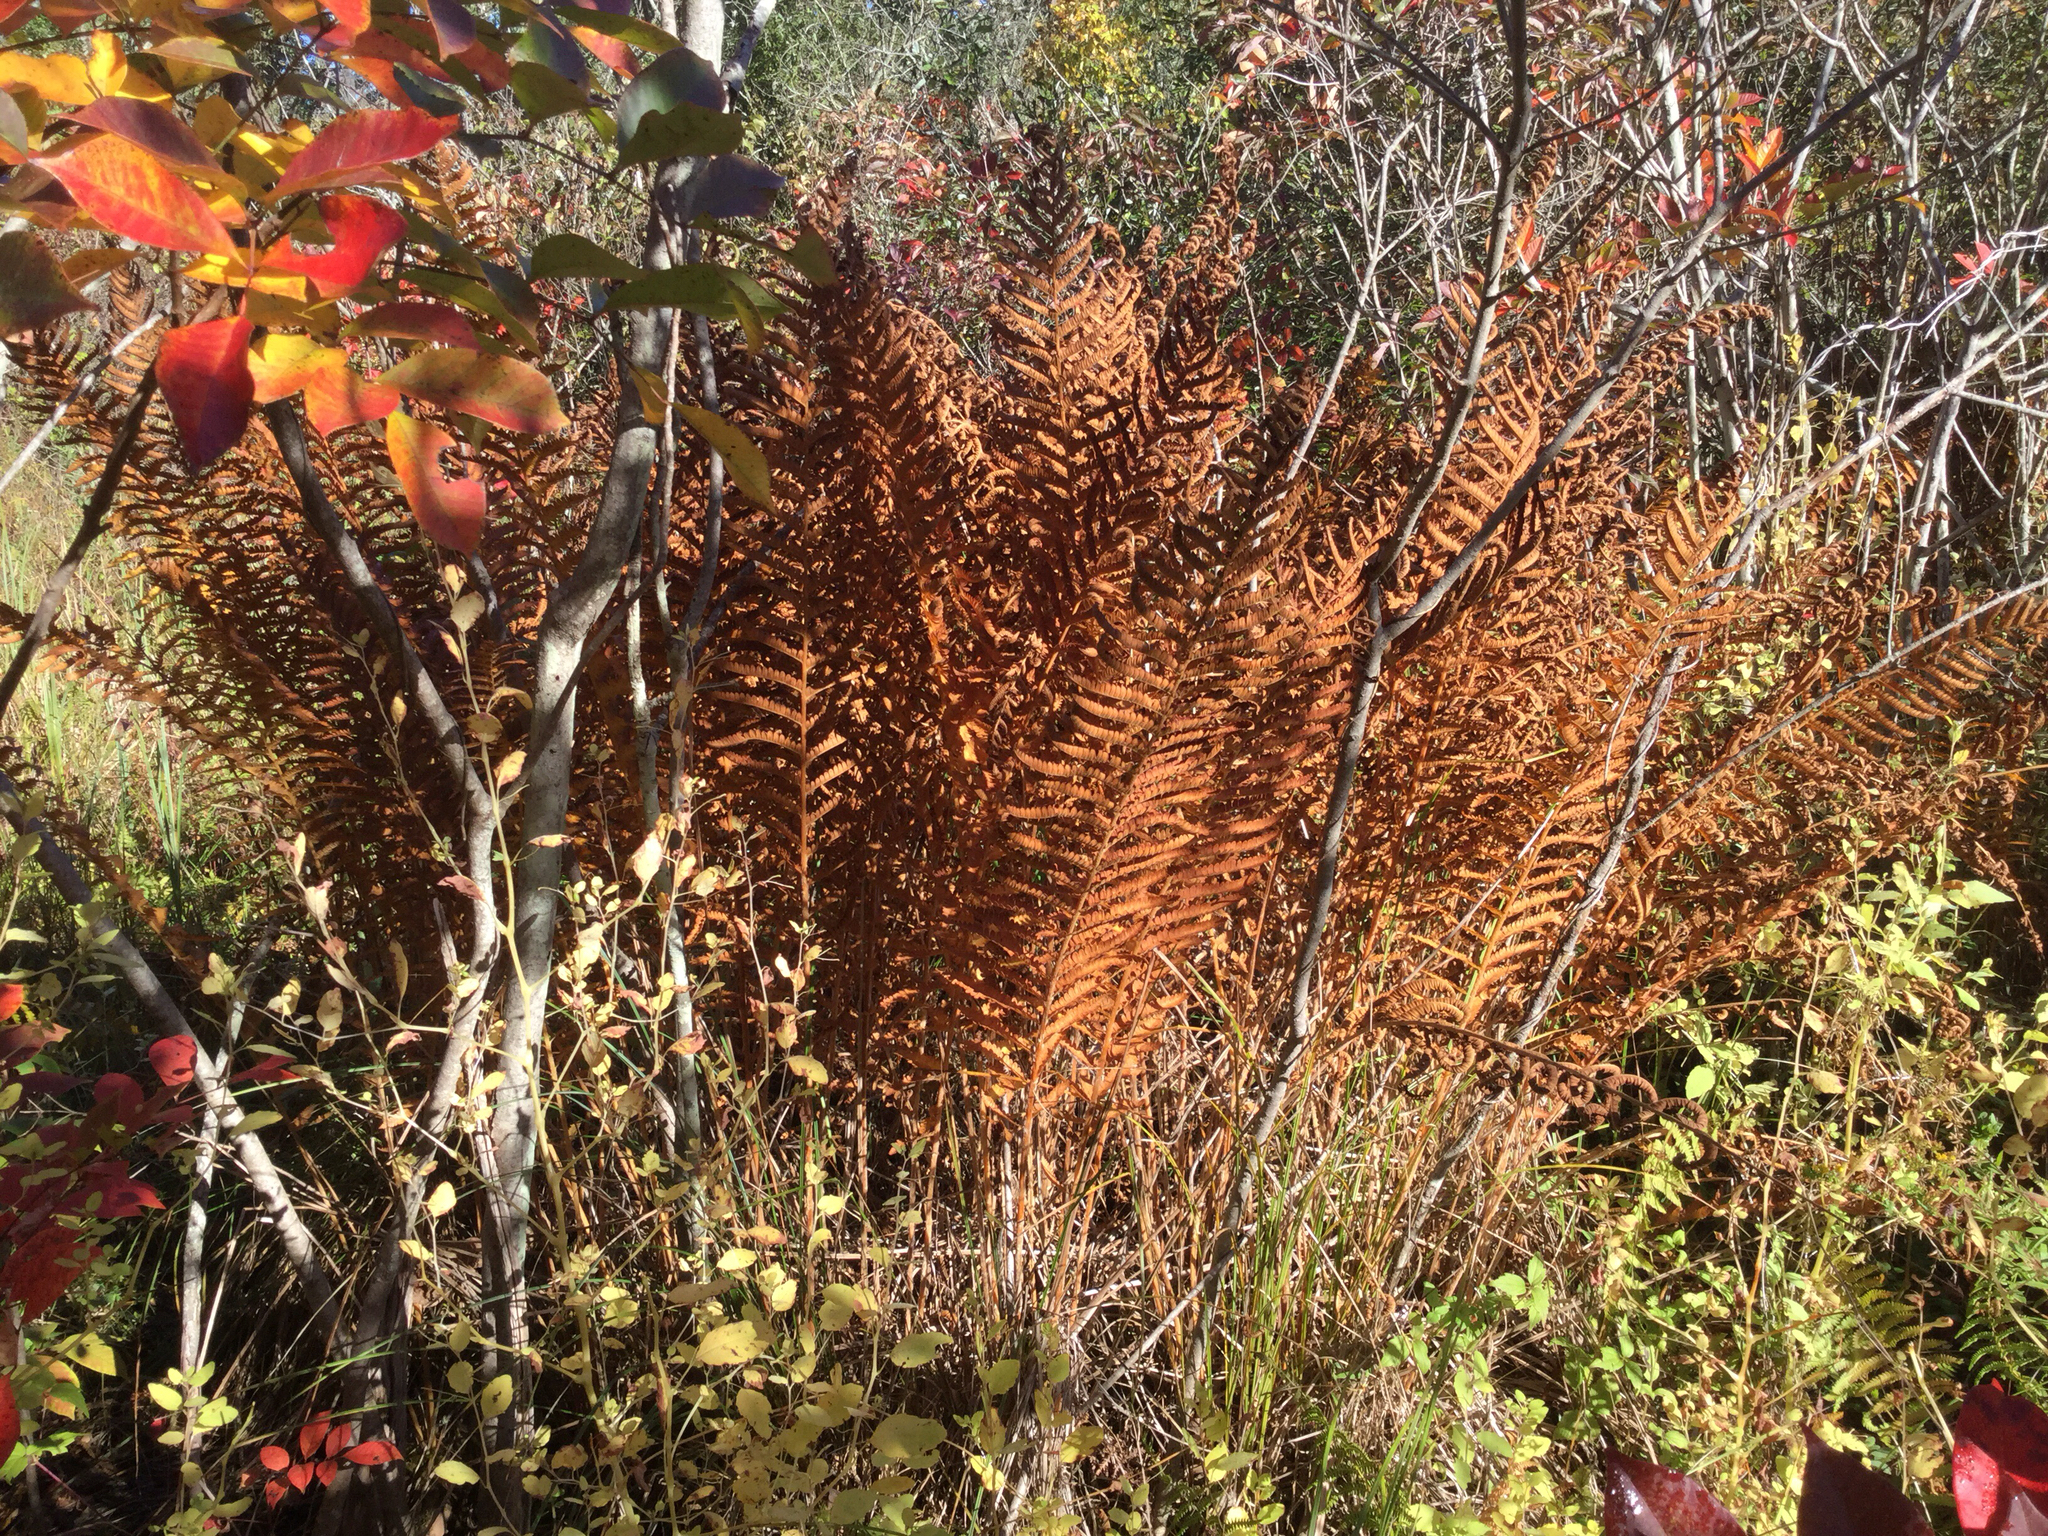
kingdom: Plantae
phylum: Tracheophyta
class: Polypodiopsida
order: Osmundales
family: Osmundaceae
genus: Osmundastrum
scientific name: Osmundastrum cinnamomeum
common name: Cinnamon fern
